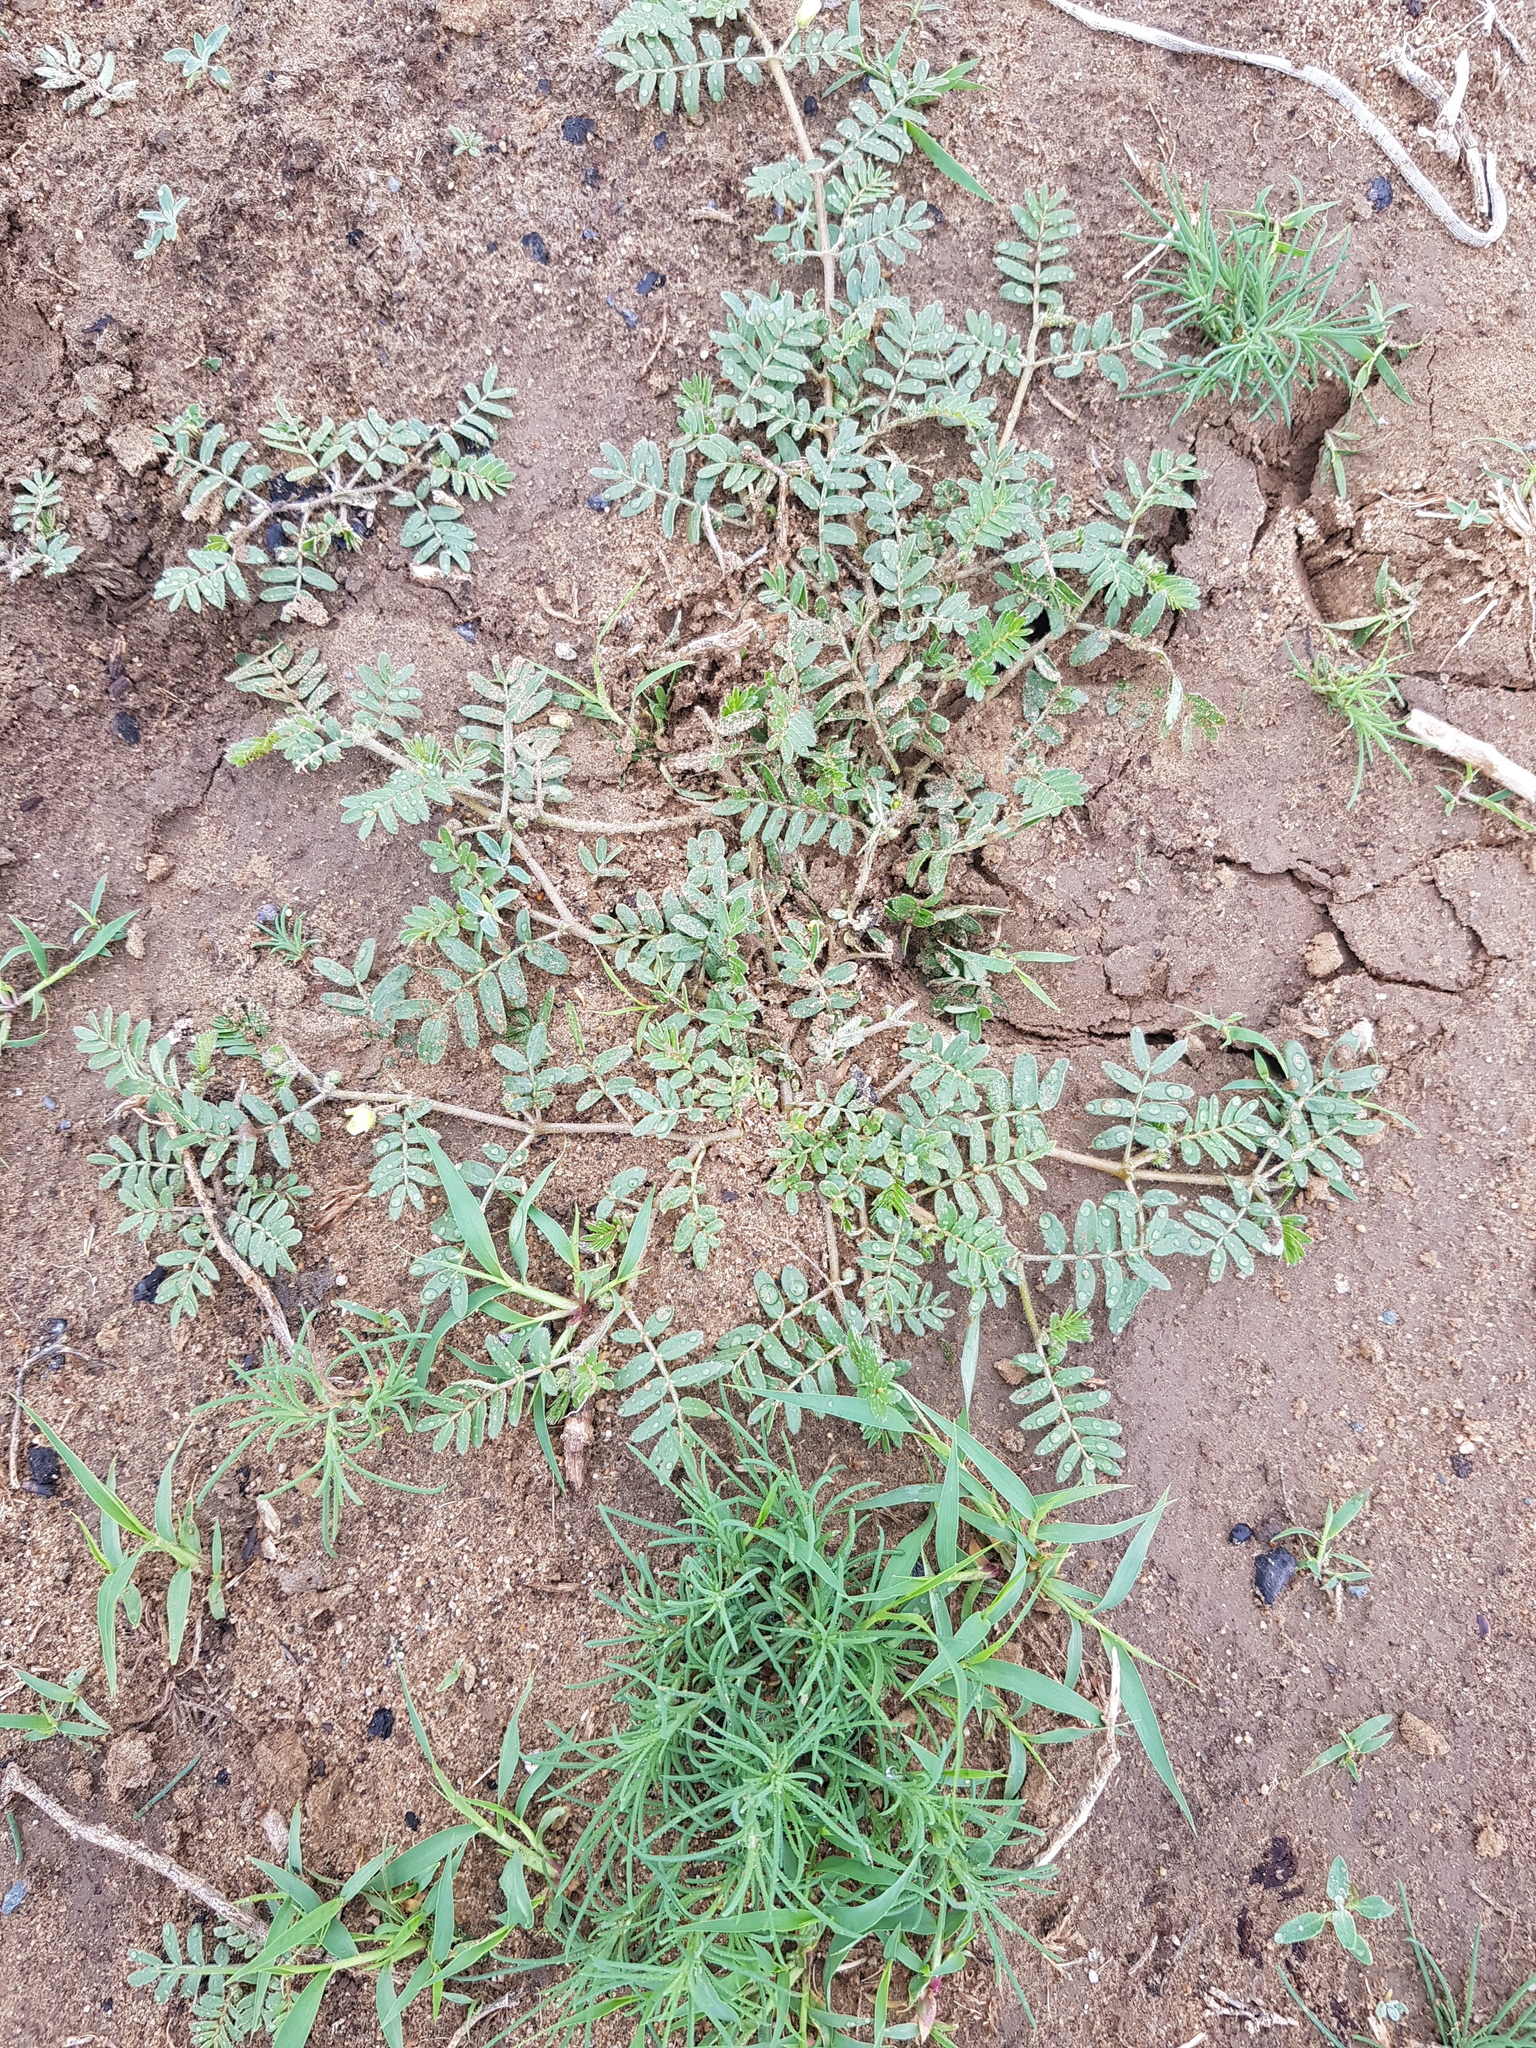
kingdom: Plantae
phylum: Tracheophyta
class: Magnoliopsida
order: Zygophyllales
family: Zygophyllaceae
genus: Tribulus
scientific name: Tribulus terrestris
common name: Puncturevine
